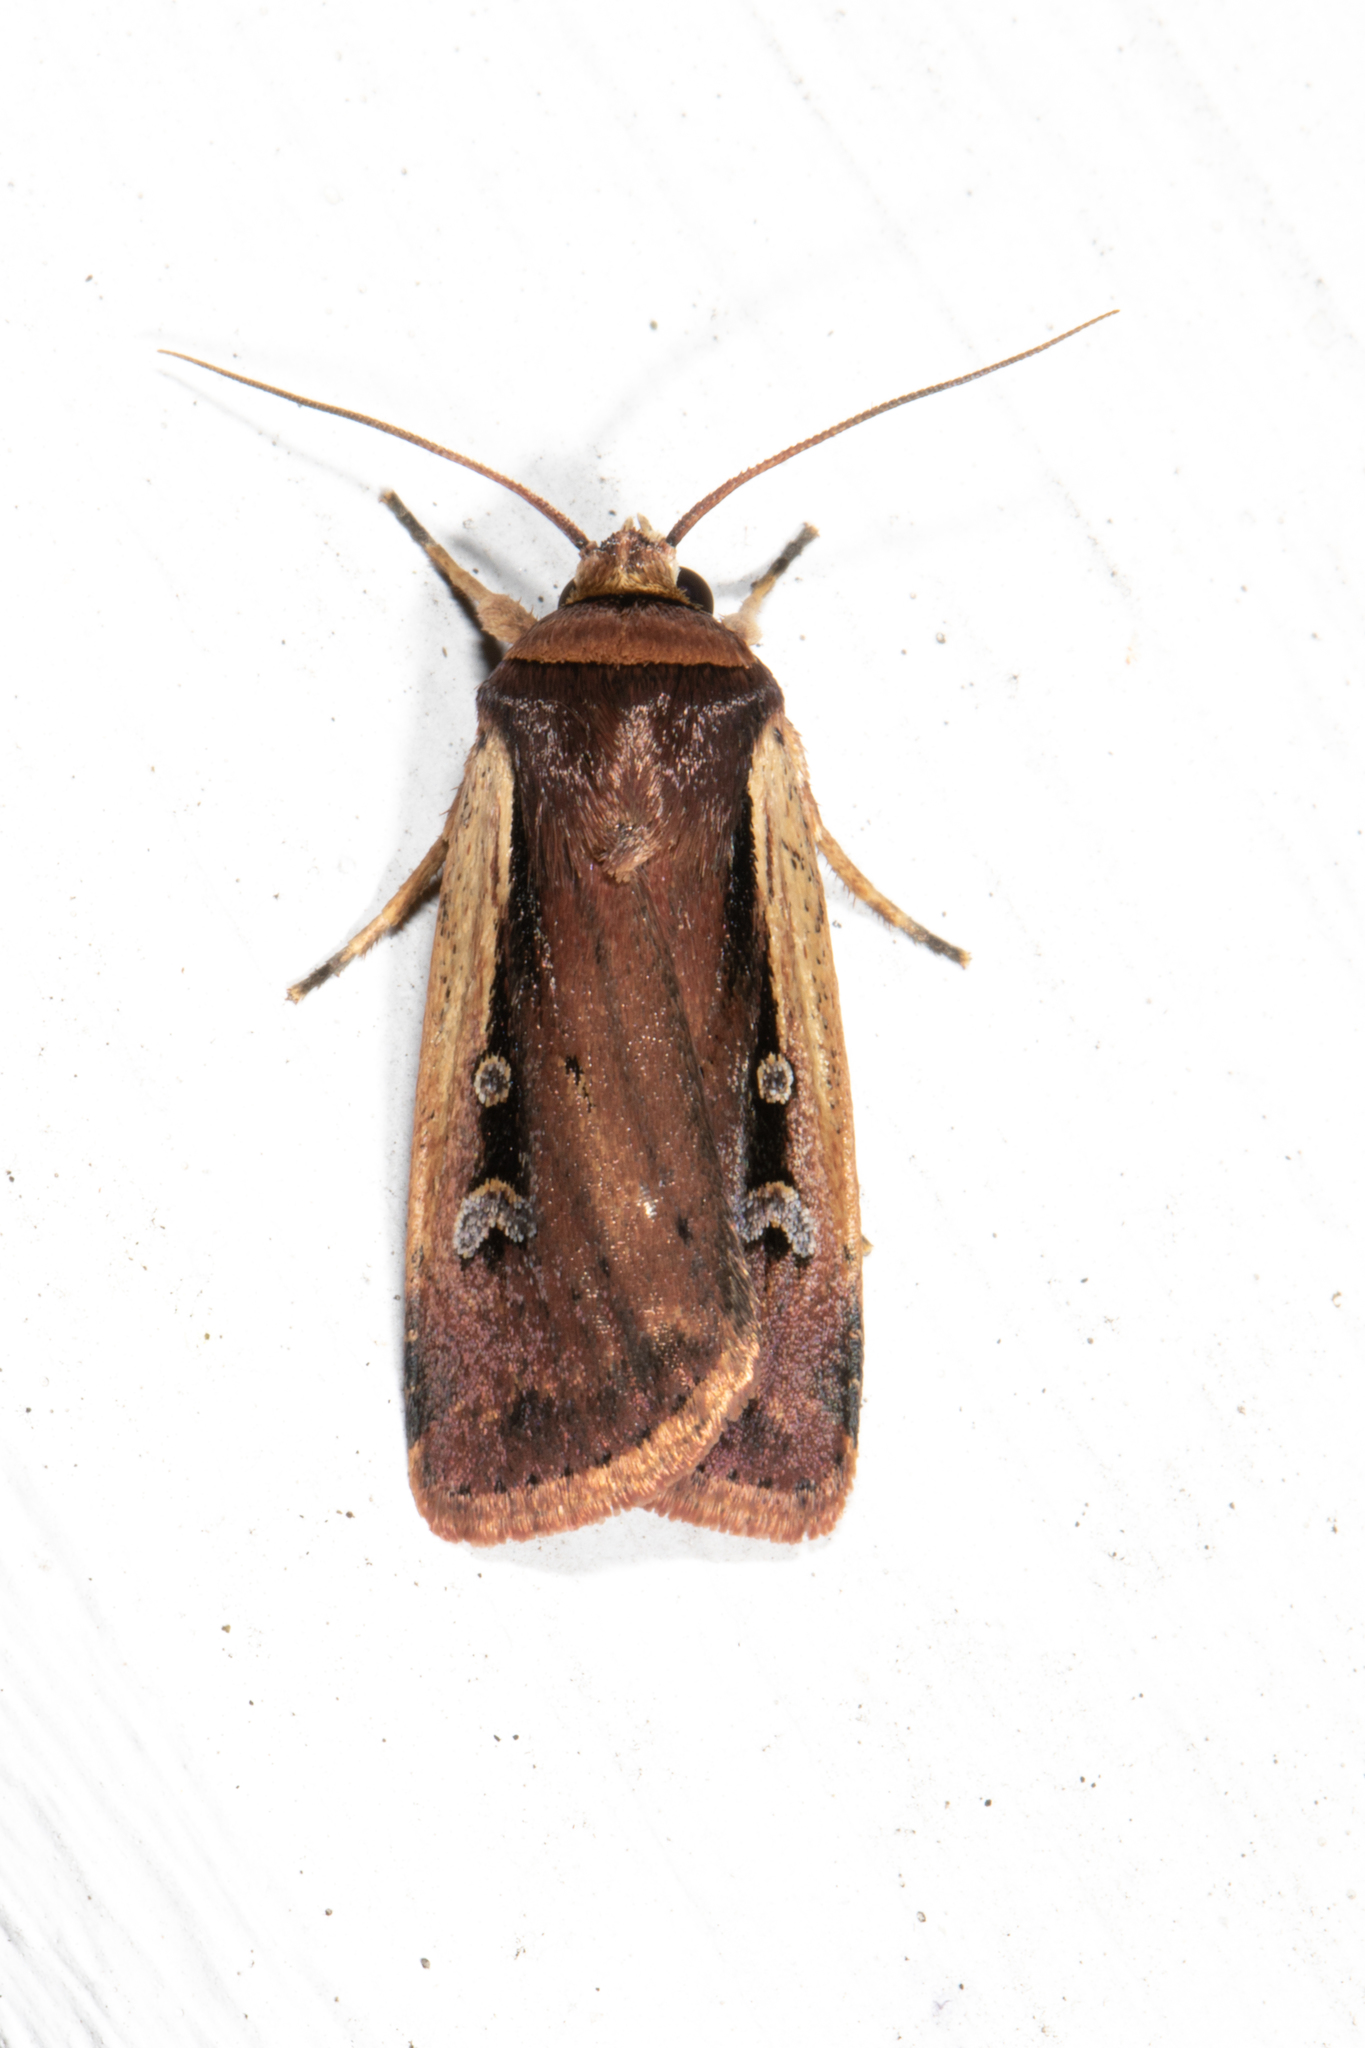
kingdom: Animalia
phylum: Arthropoda
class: Insecta
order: Lepidoptera
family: Noctuidae
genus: Ochropleura
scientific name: Ochropleura implecta
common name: Flame-shouldered dart
